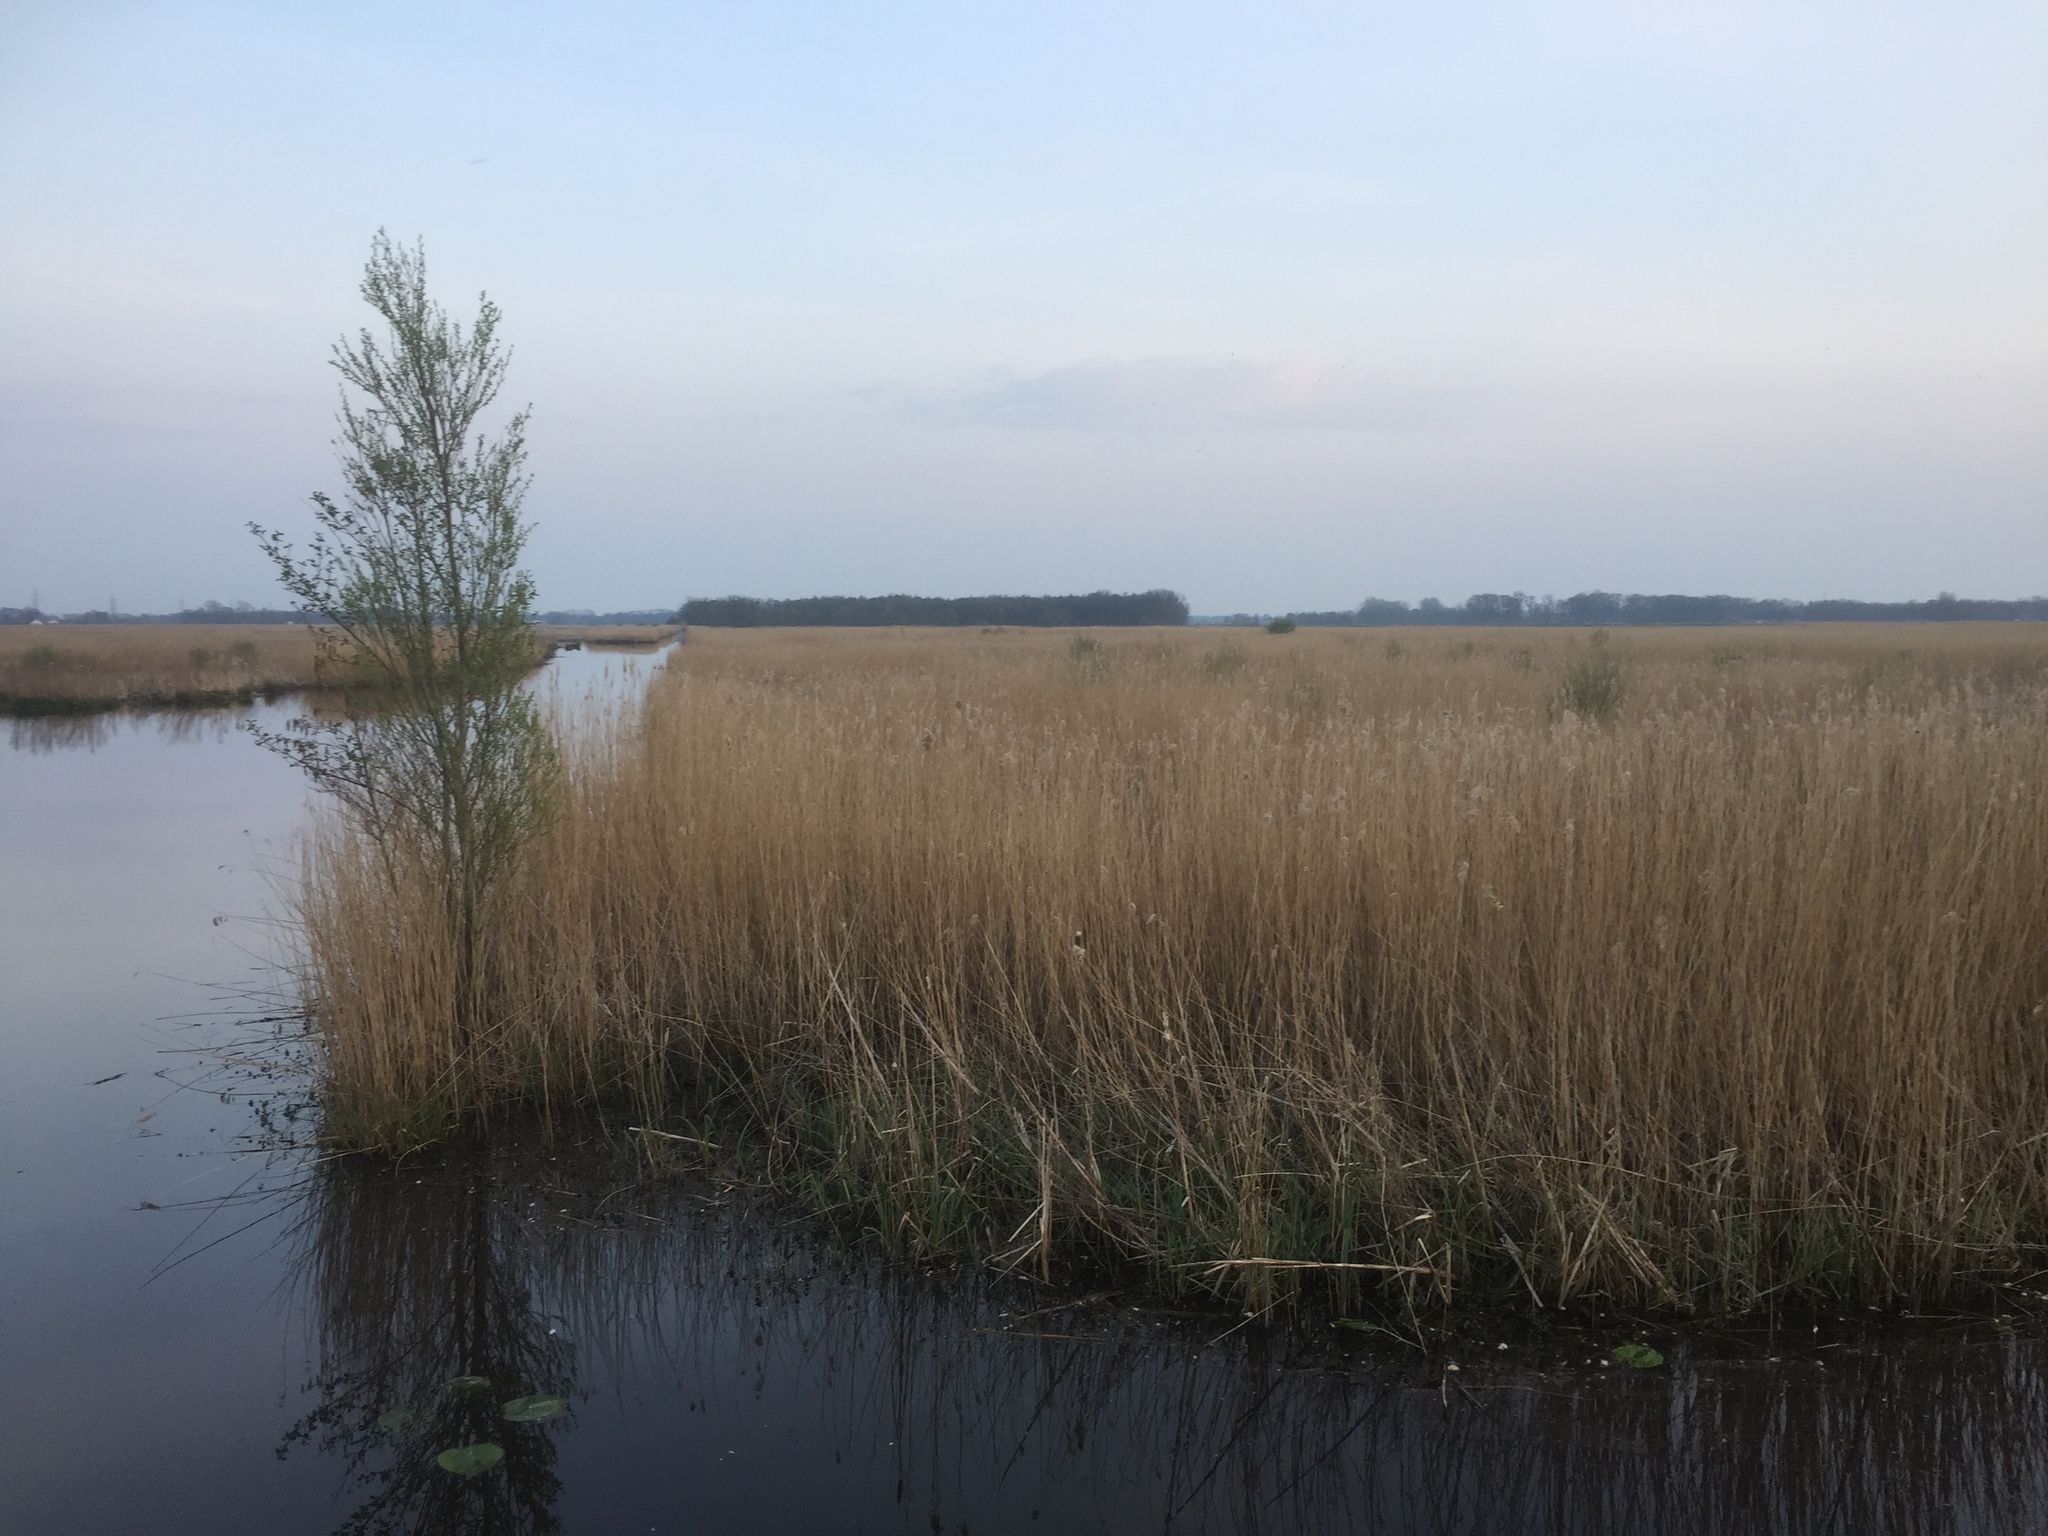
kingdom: Plantae
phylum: Tracheophyta
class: Liliopsida
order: Poales
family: Poaceae
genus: Phragmites
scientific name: Phragmites australis
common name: Common reed
